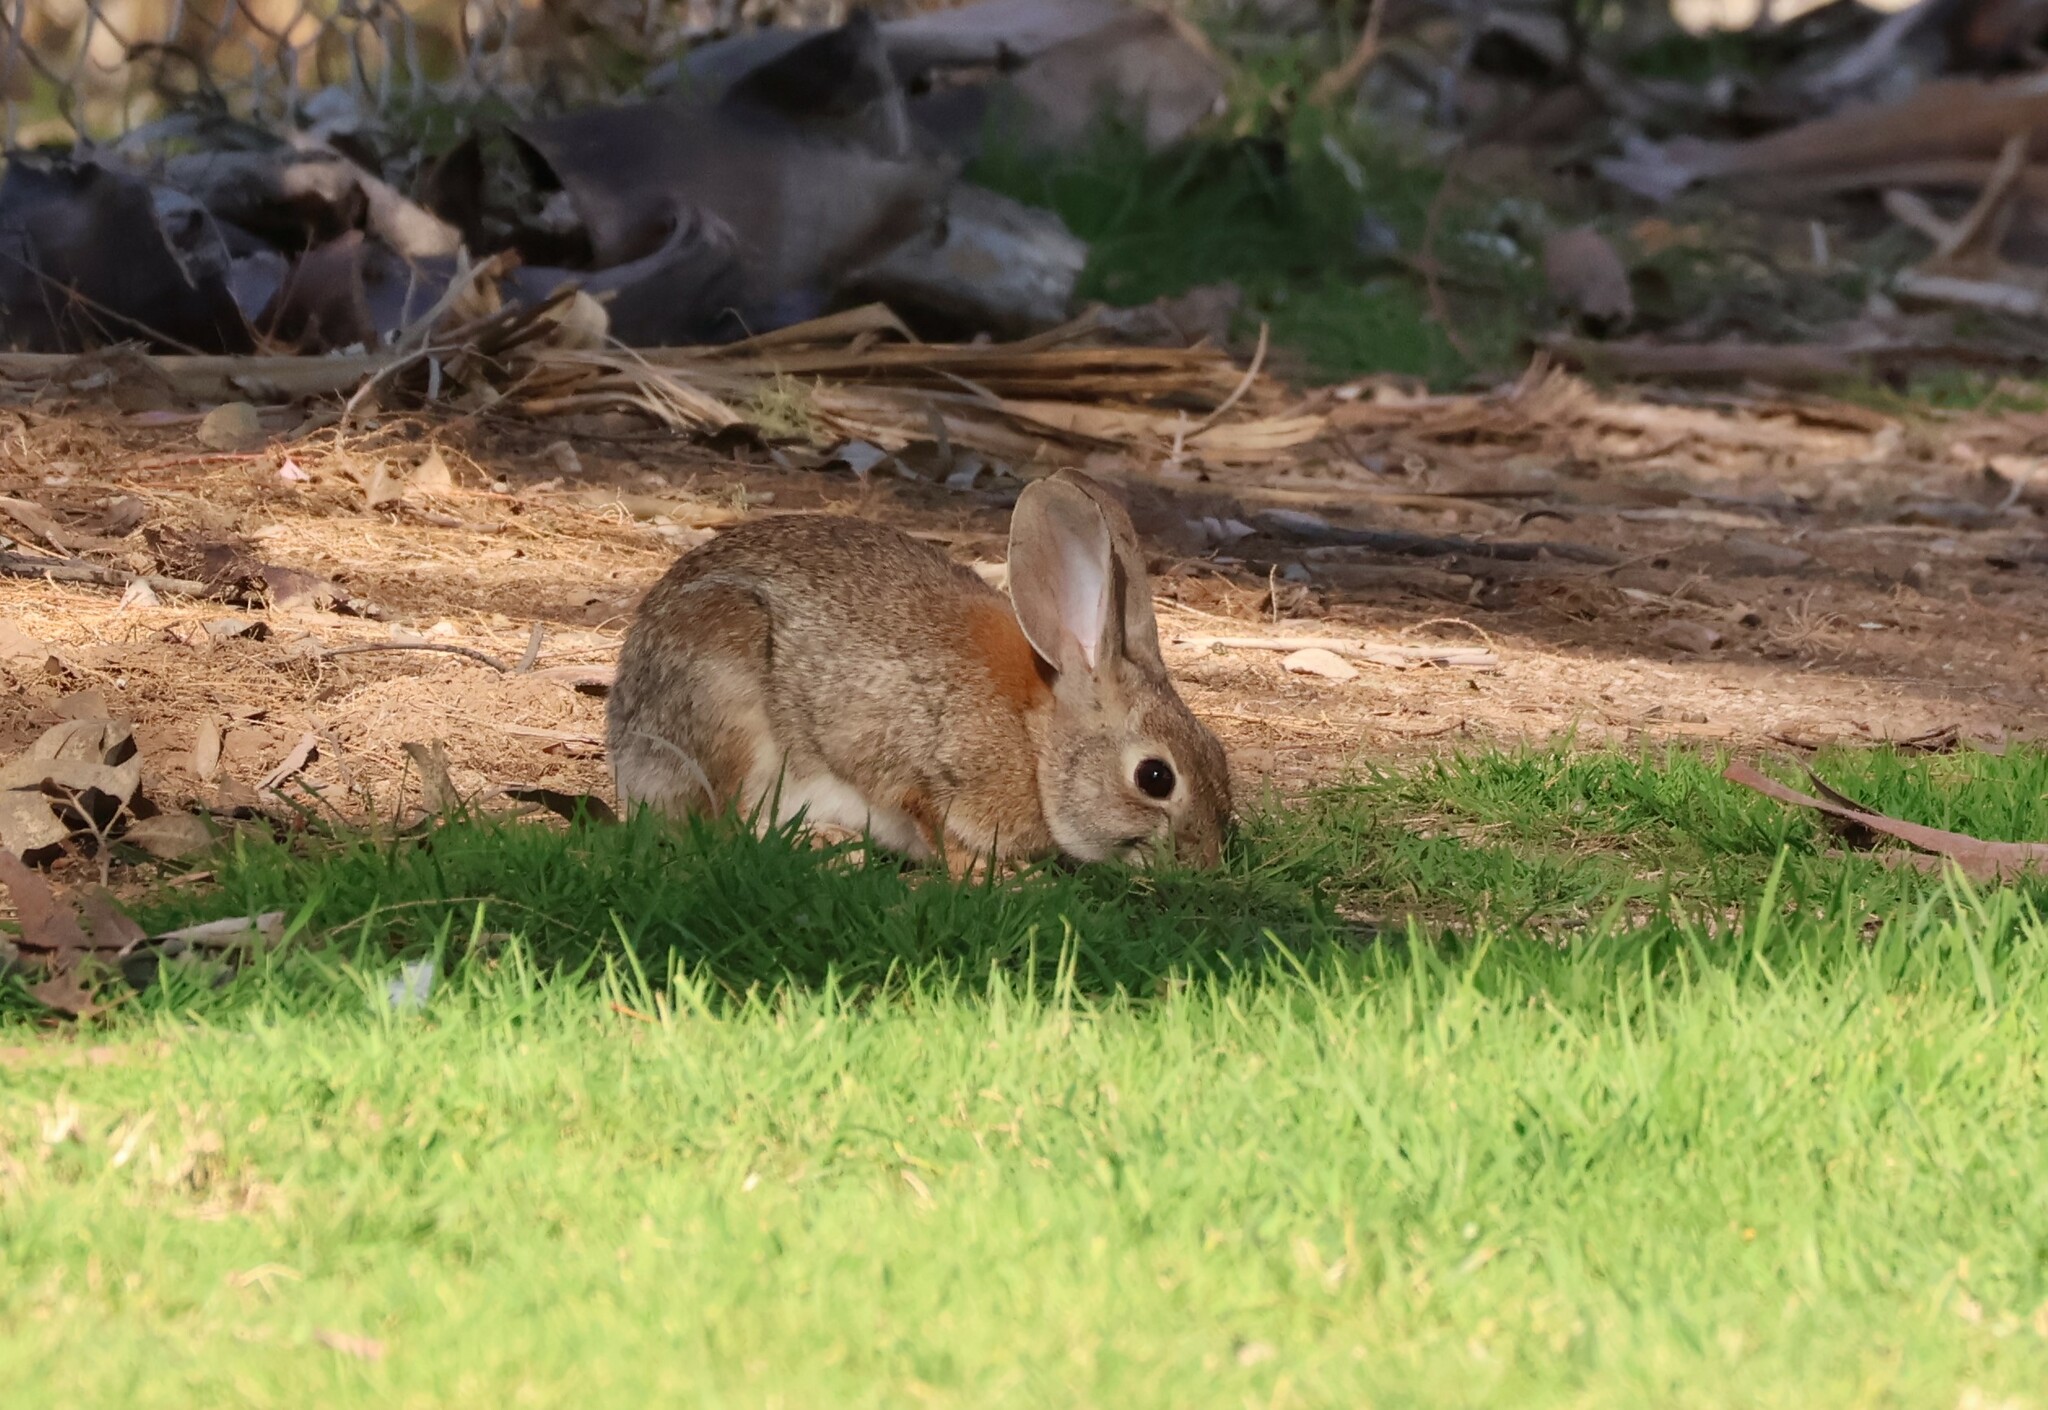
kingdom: Animalia
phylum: Chordata
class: Mammalia
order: Lagomorpha
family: Leporidae
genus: Sylvilagus
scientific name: Sylvilagus audubonii
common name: Desert cottontail
